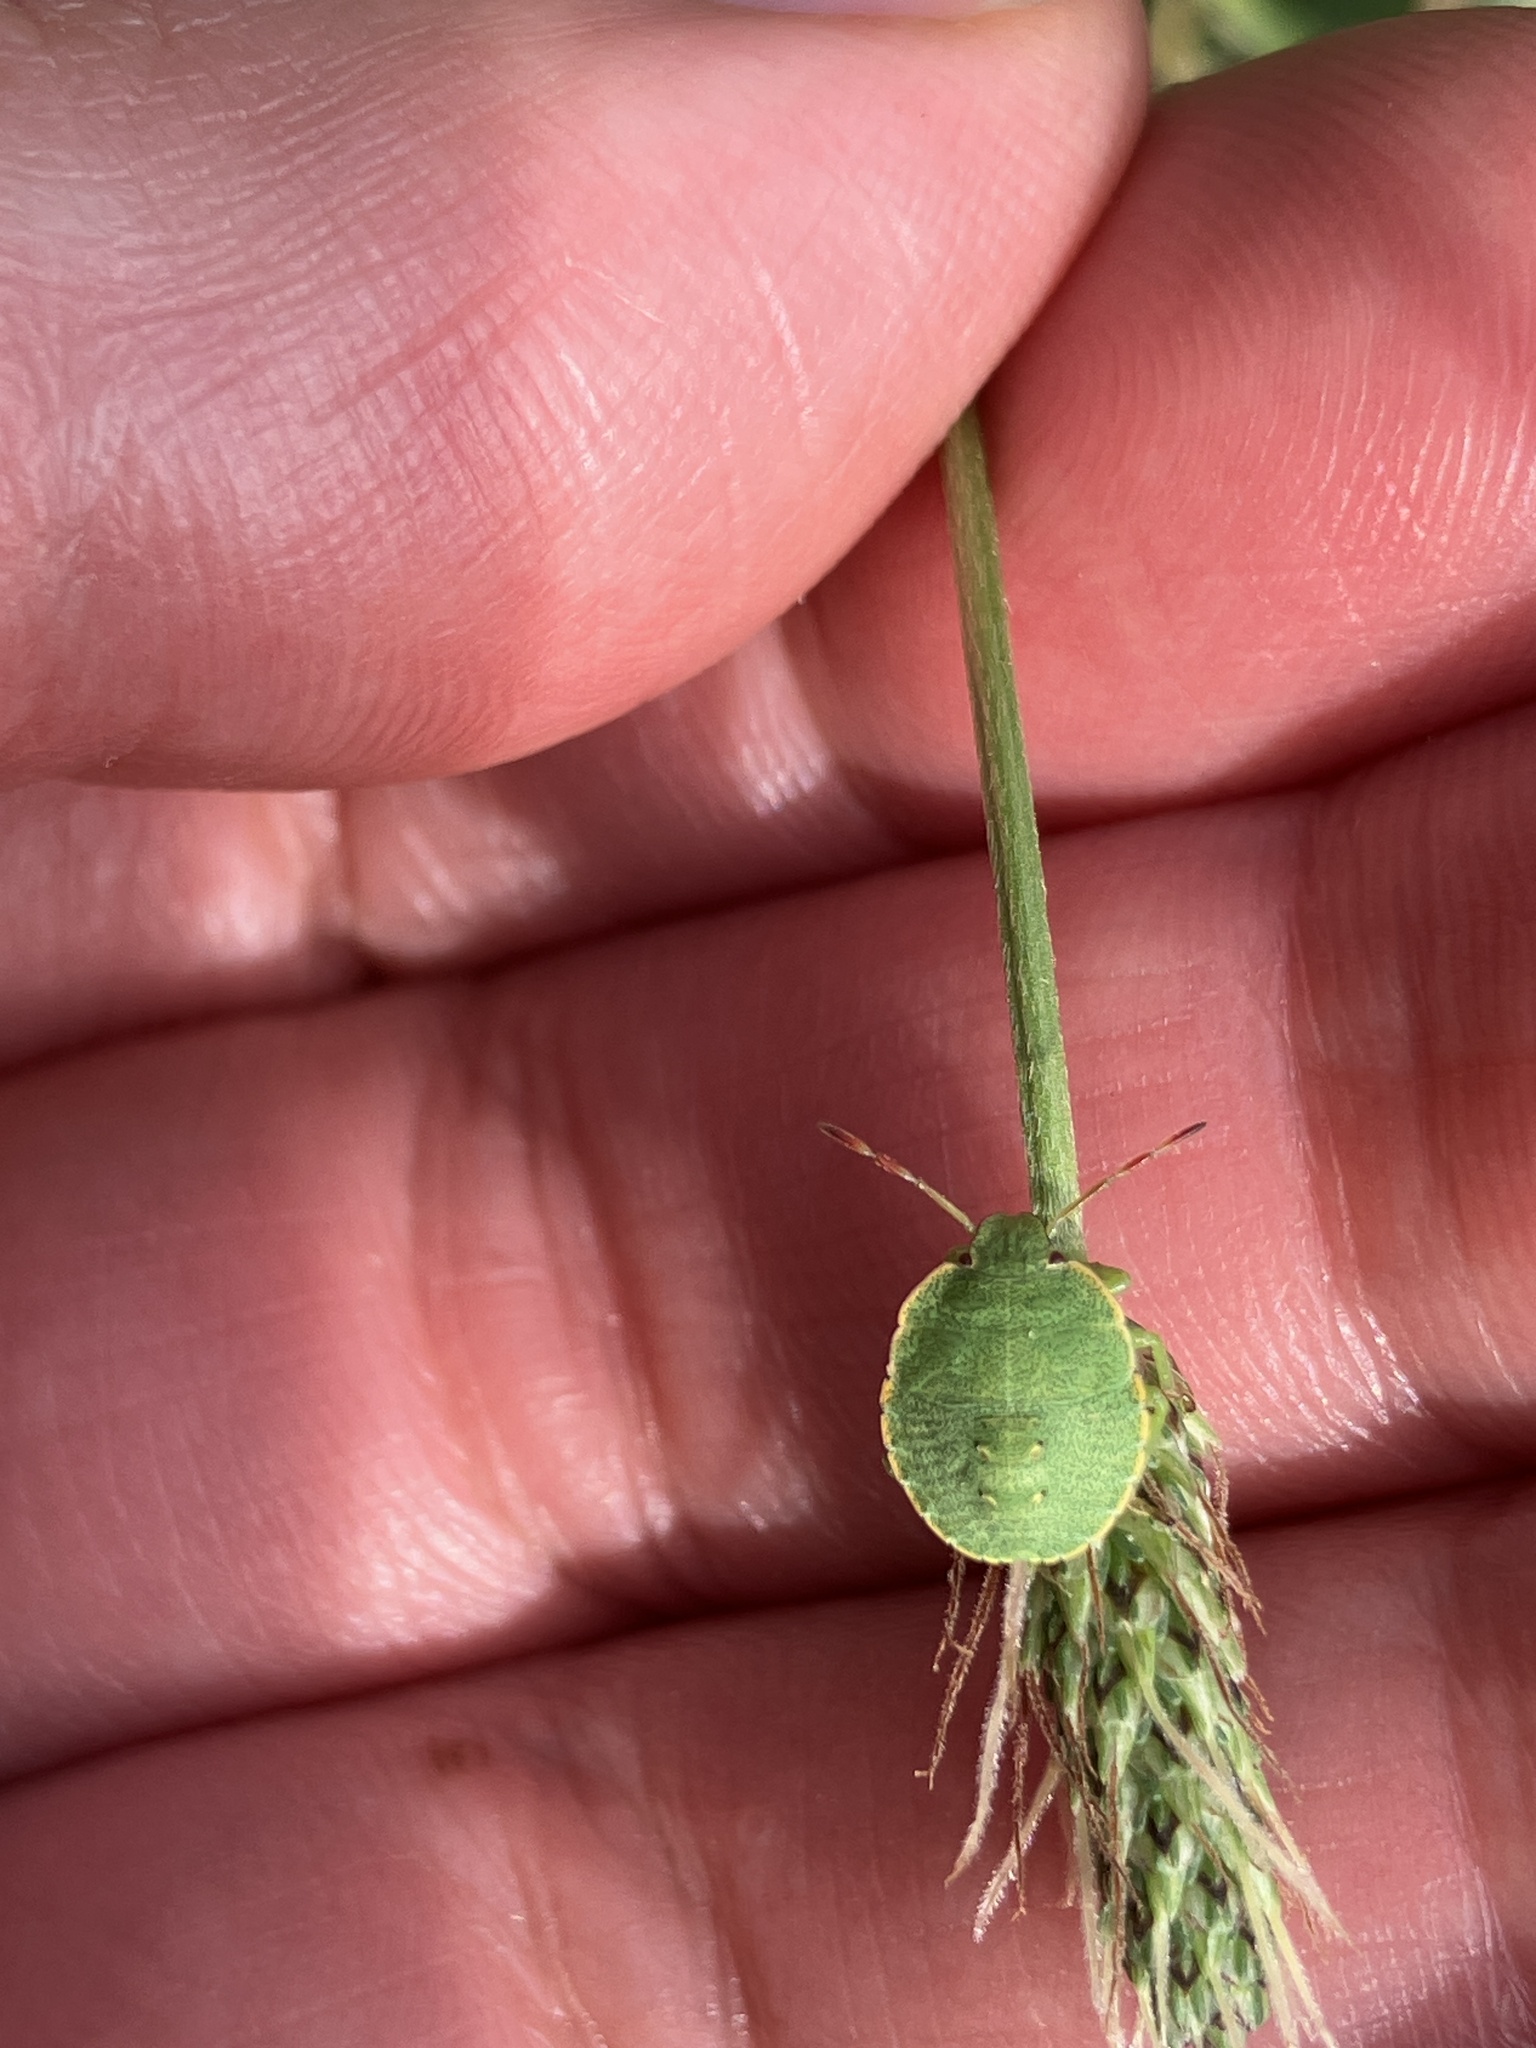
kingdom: Animalia
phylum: Arthropoda
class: Insecta
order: Hemiptera
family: Pentatomidae
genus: Palomena
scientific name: Palomena prasina
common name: Green shieldbug
